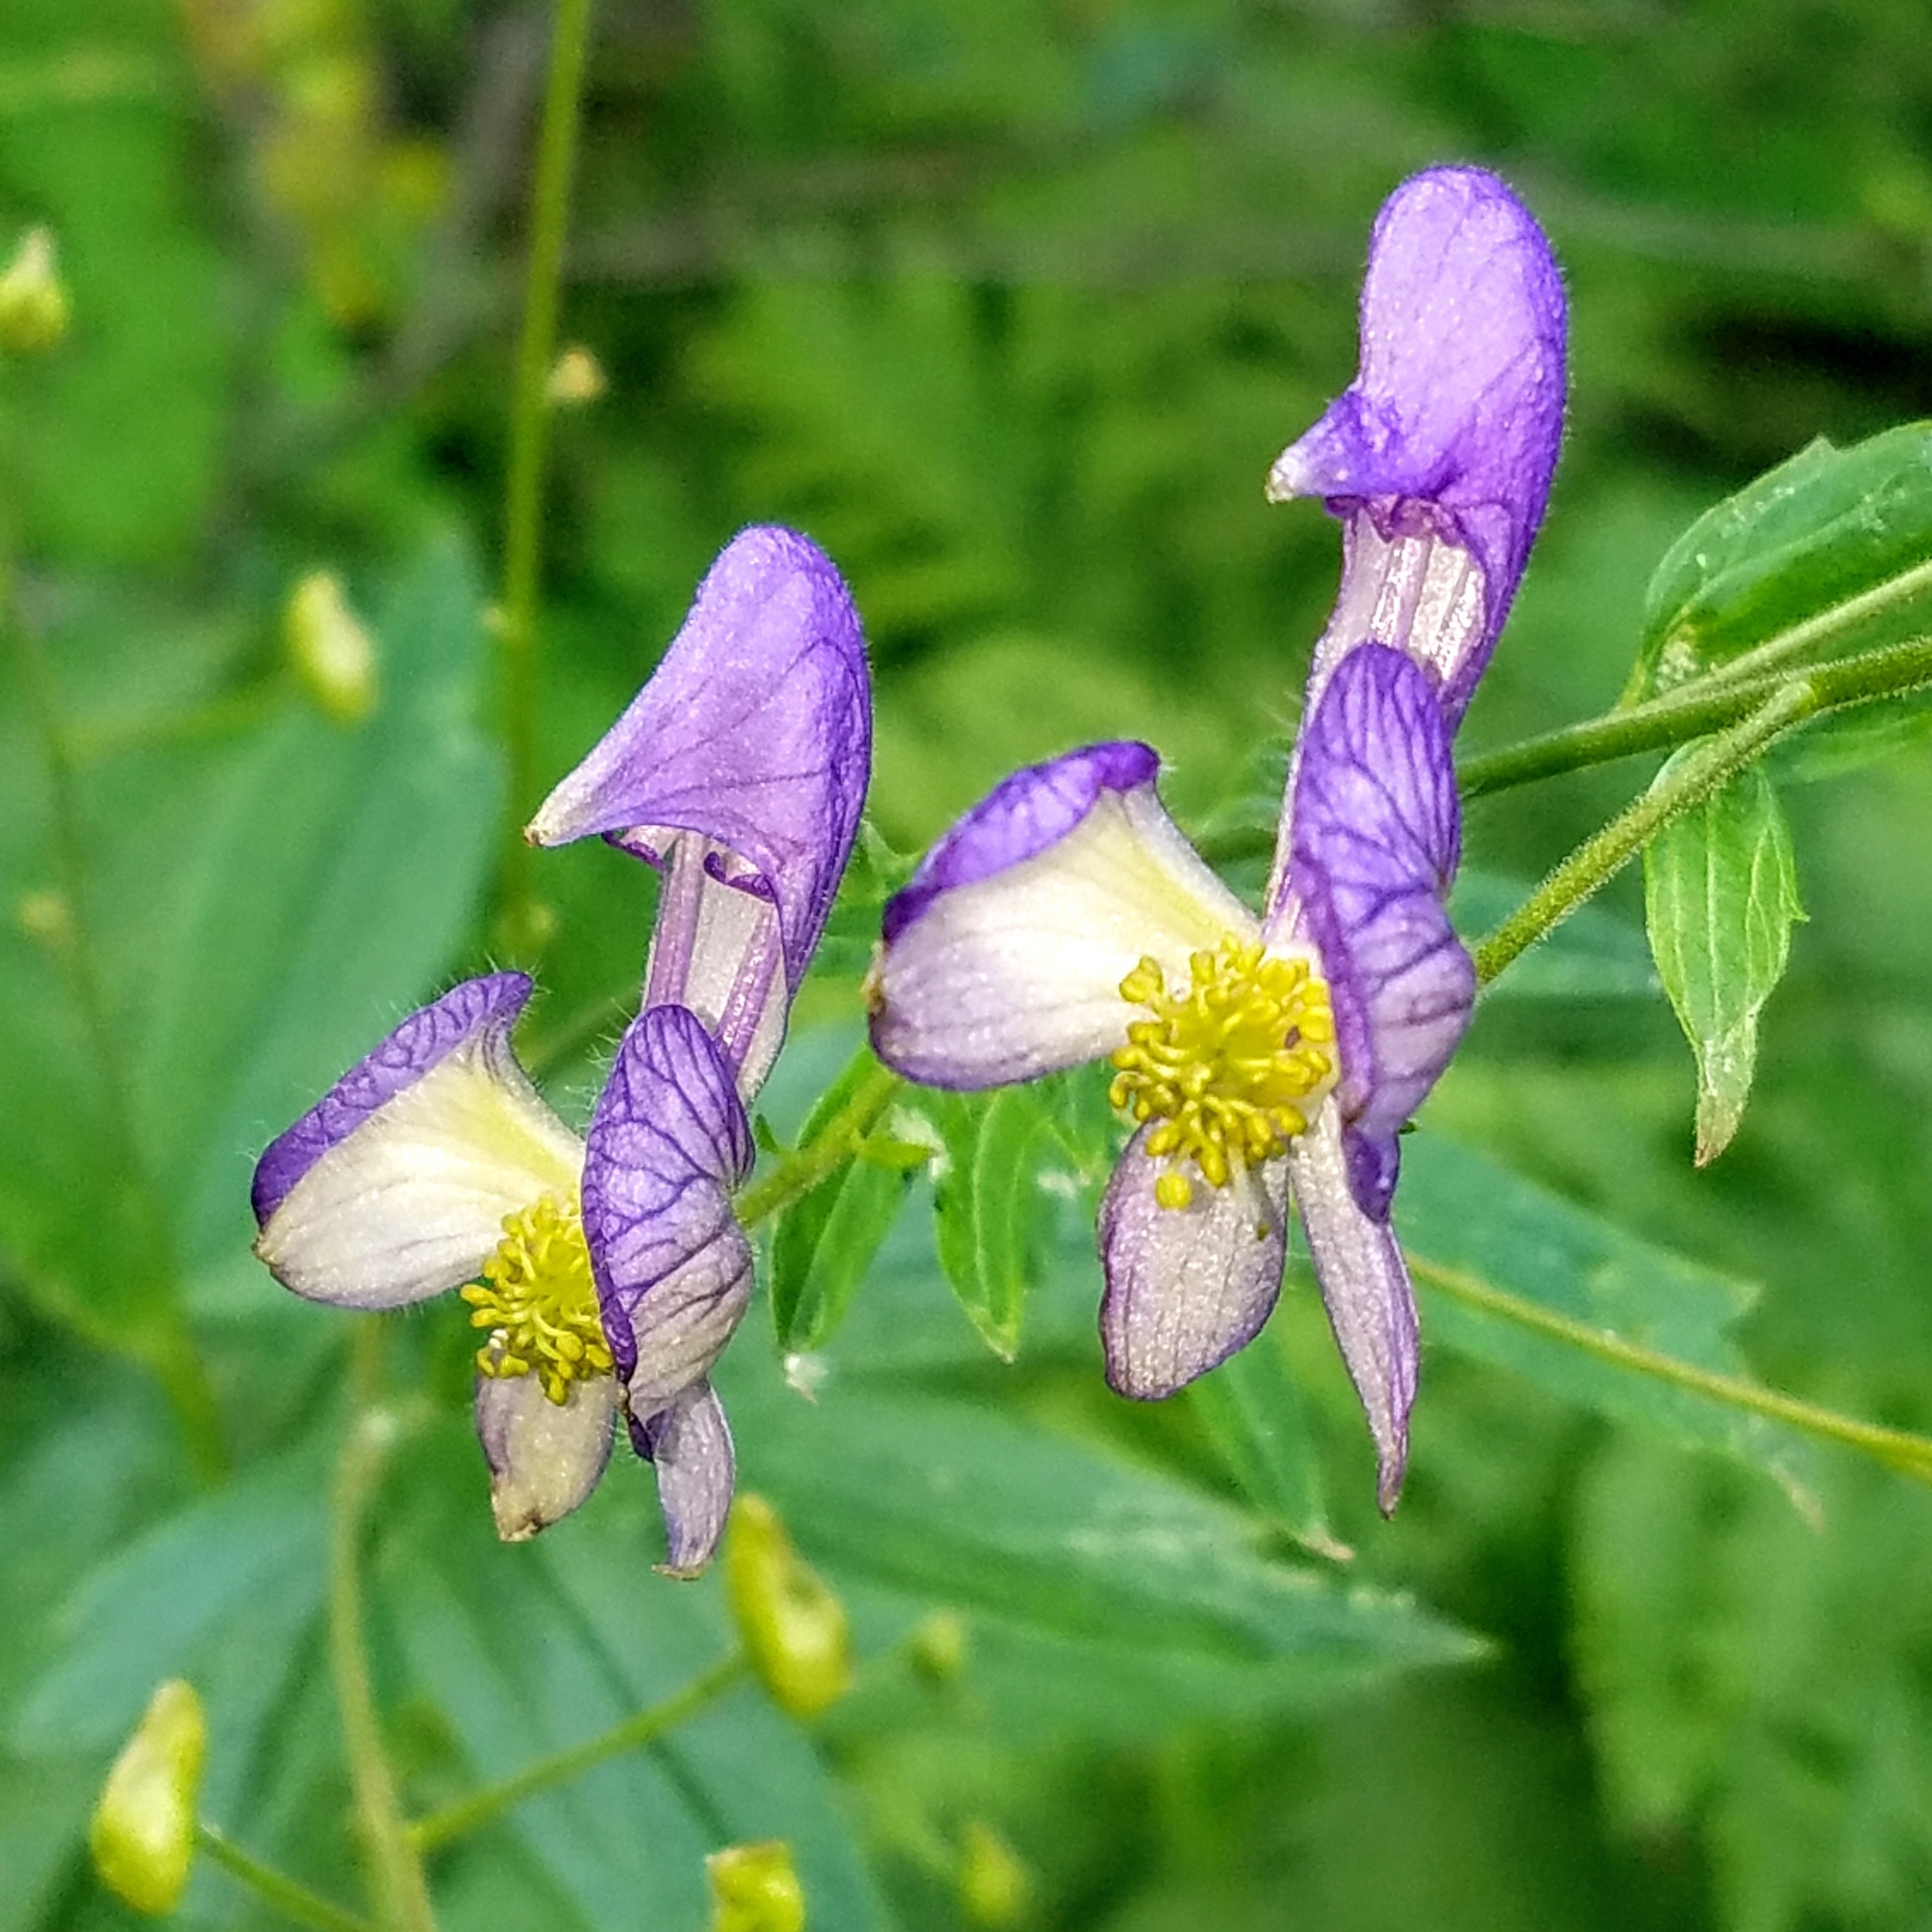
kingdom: Plantae
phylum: Tracheophyta
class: Magnoliopsida
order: Ranunculales
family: Ranunculaceae
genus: Aconitum
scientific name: Aconitum columbianum
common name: Columbia aconite
